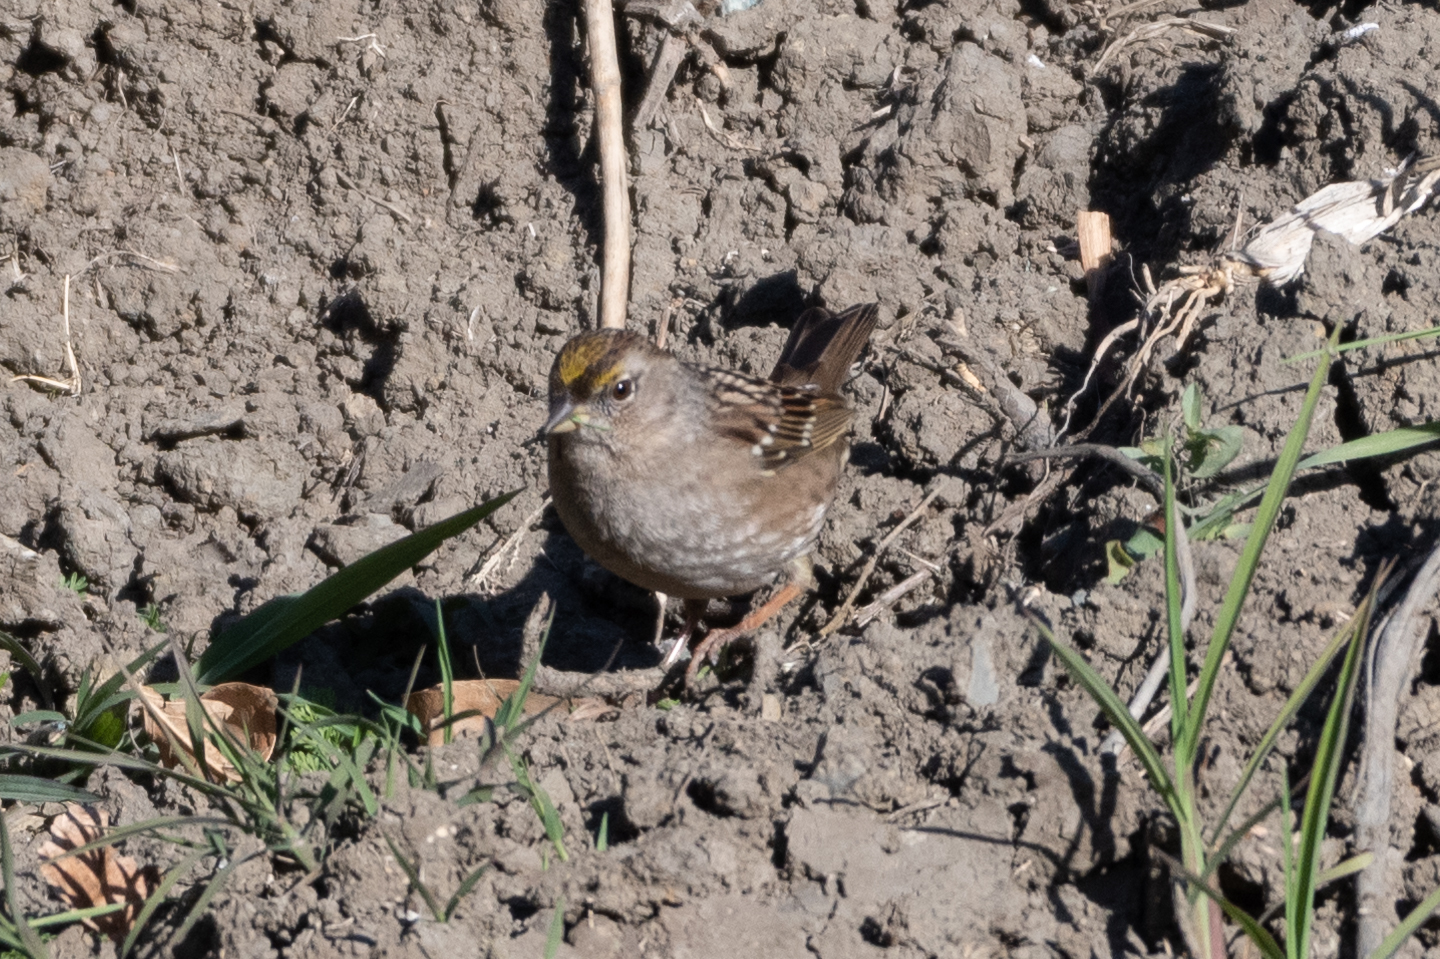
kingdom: Animalia
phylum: Chordata
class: Aves
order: Passeriformes
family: Passerellidae
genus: Zonotrichia
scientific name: Zonotrichia atricapilla
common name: Golden-crowned sparrow
